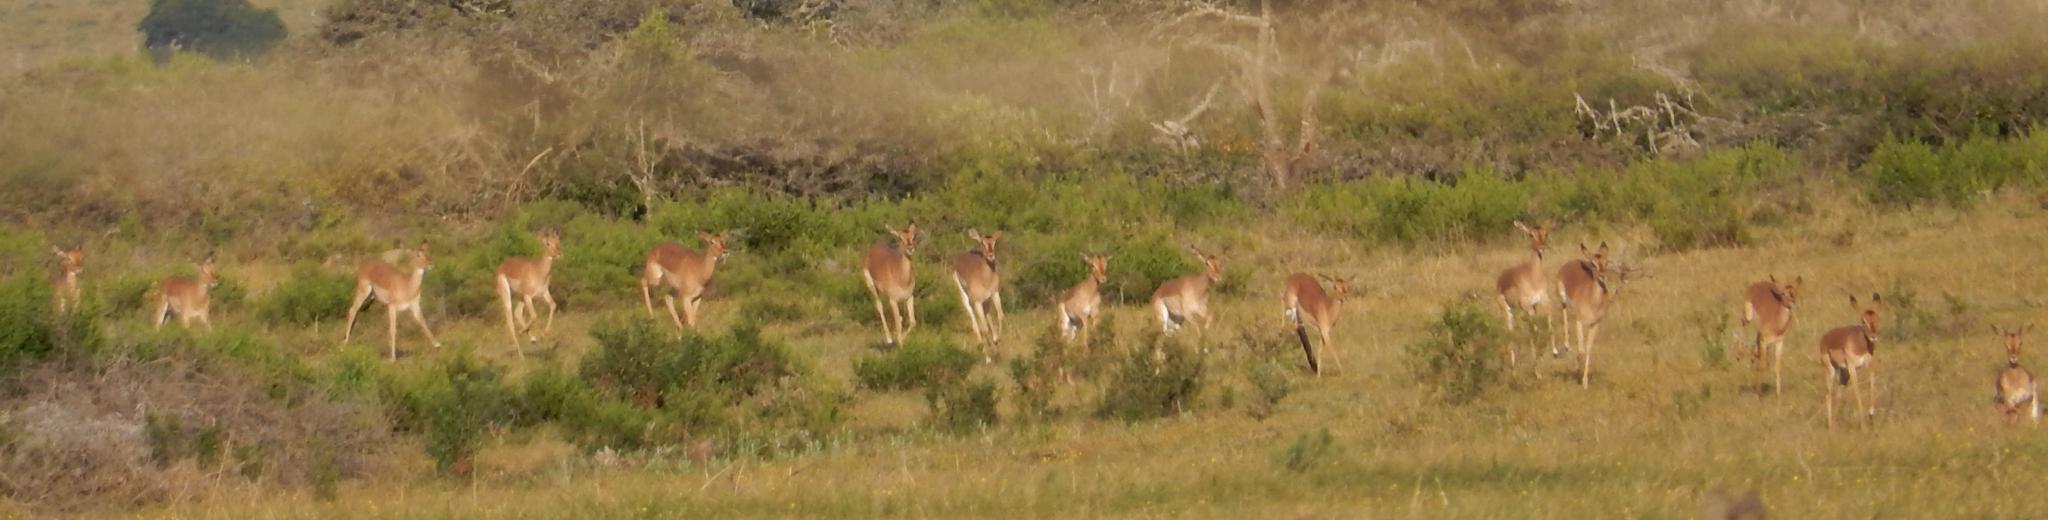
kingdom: Animalia
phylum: Chordata
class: Mammalia
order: Artiodactyla
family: Bovidae
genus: Aepyceros
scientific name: Aepyceros melampus
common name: Impala
